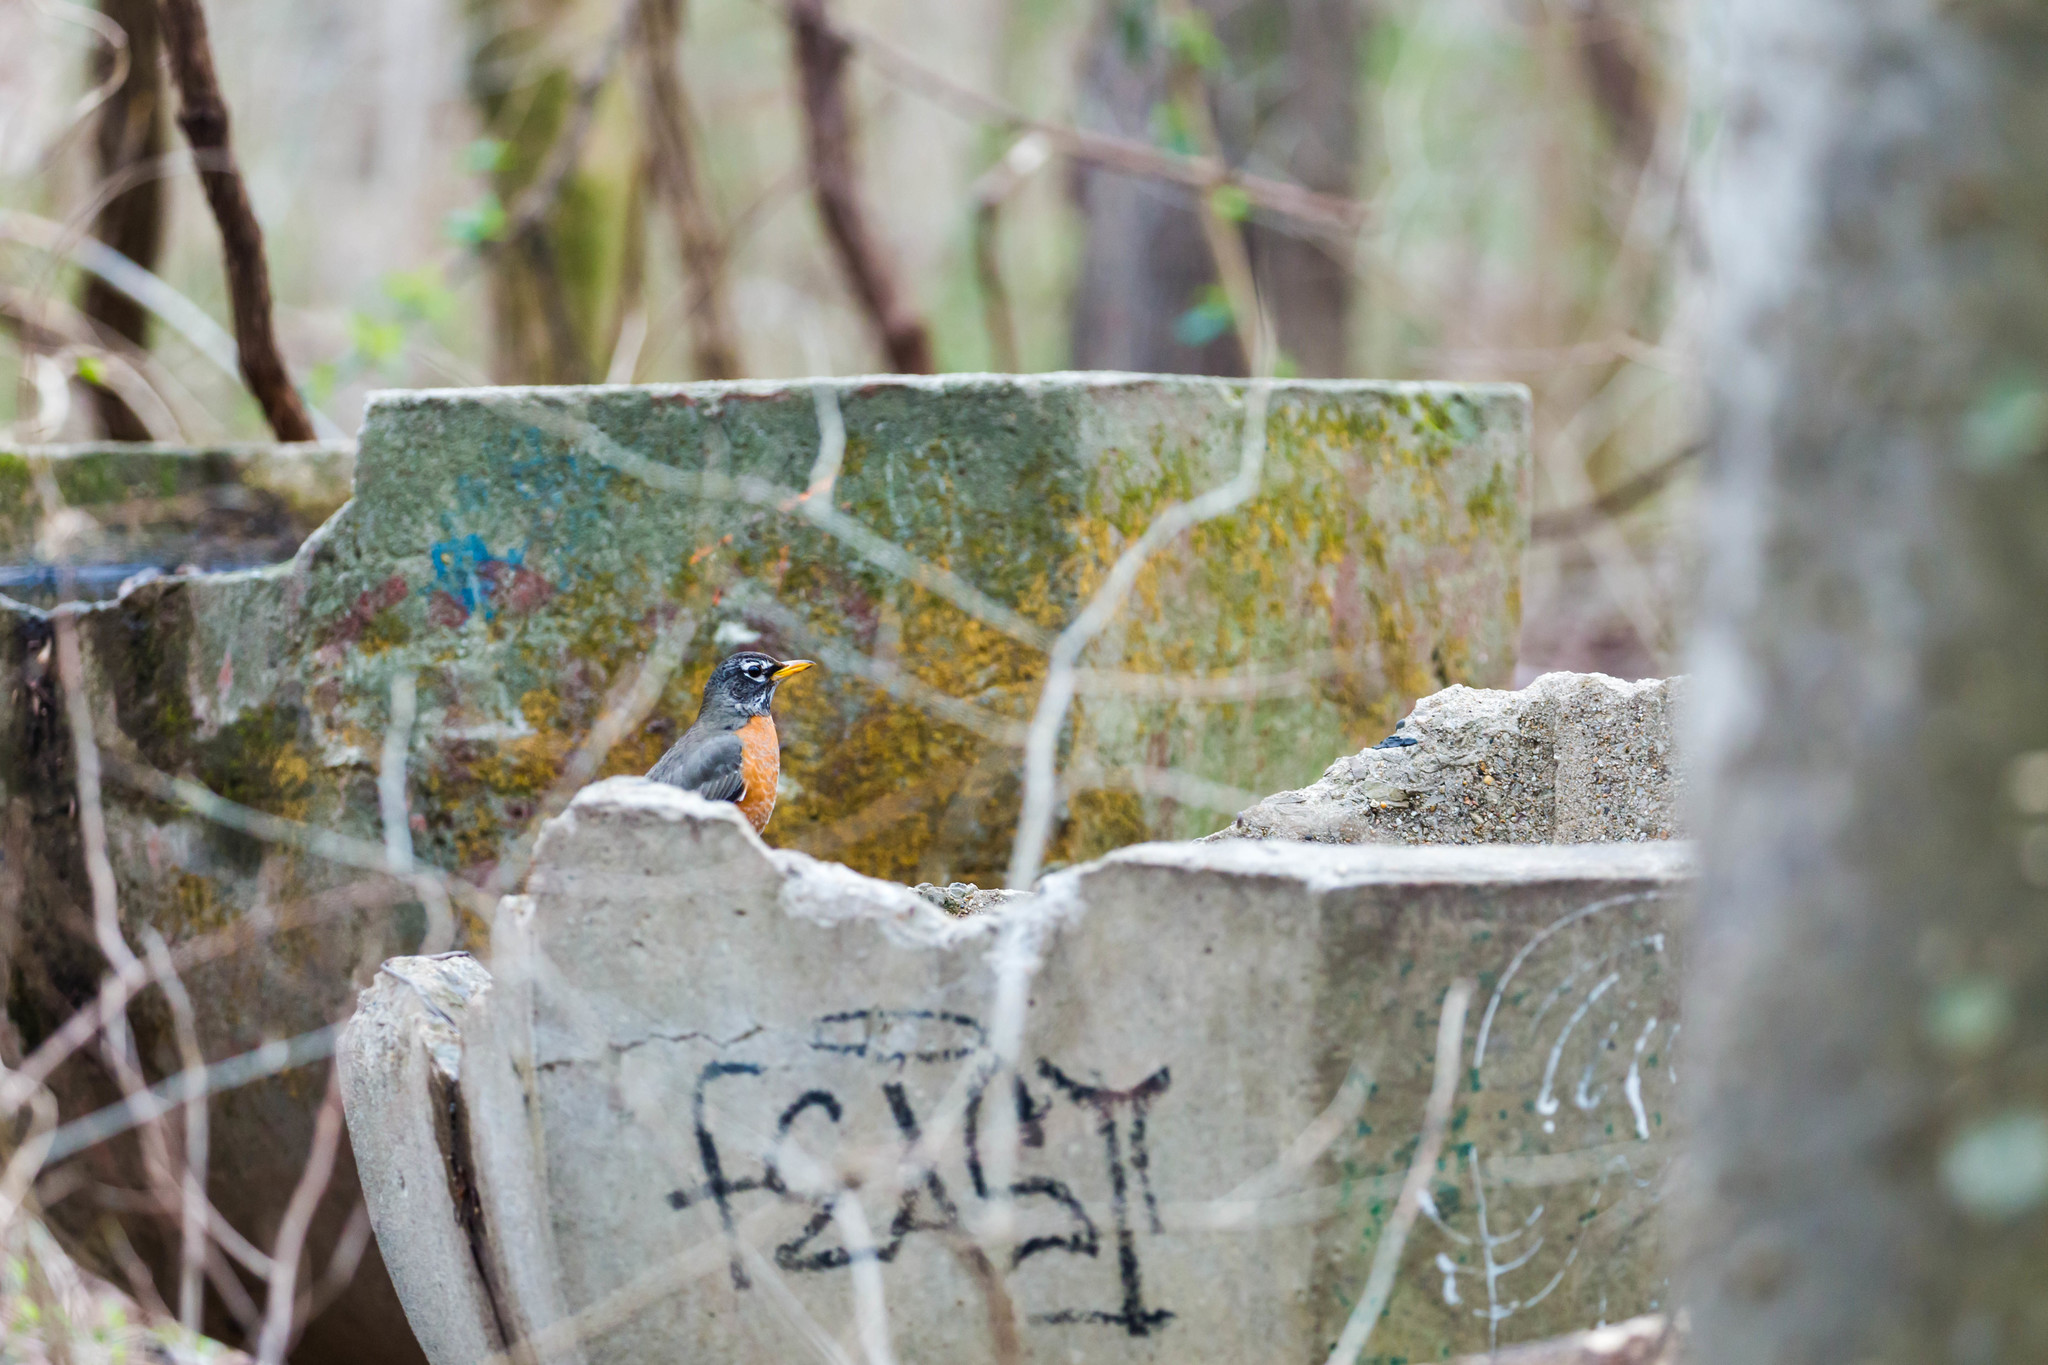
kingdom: Animalia
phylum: Chordata
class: Aves
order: Passeriformes
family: Turdidae
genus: Turdus
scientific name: Turdus migratorius
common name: American robin
